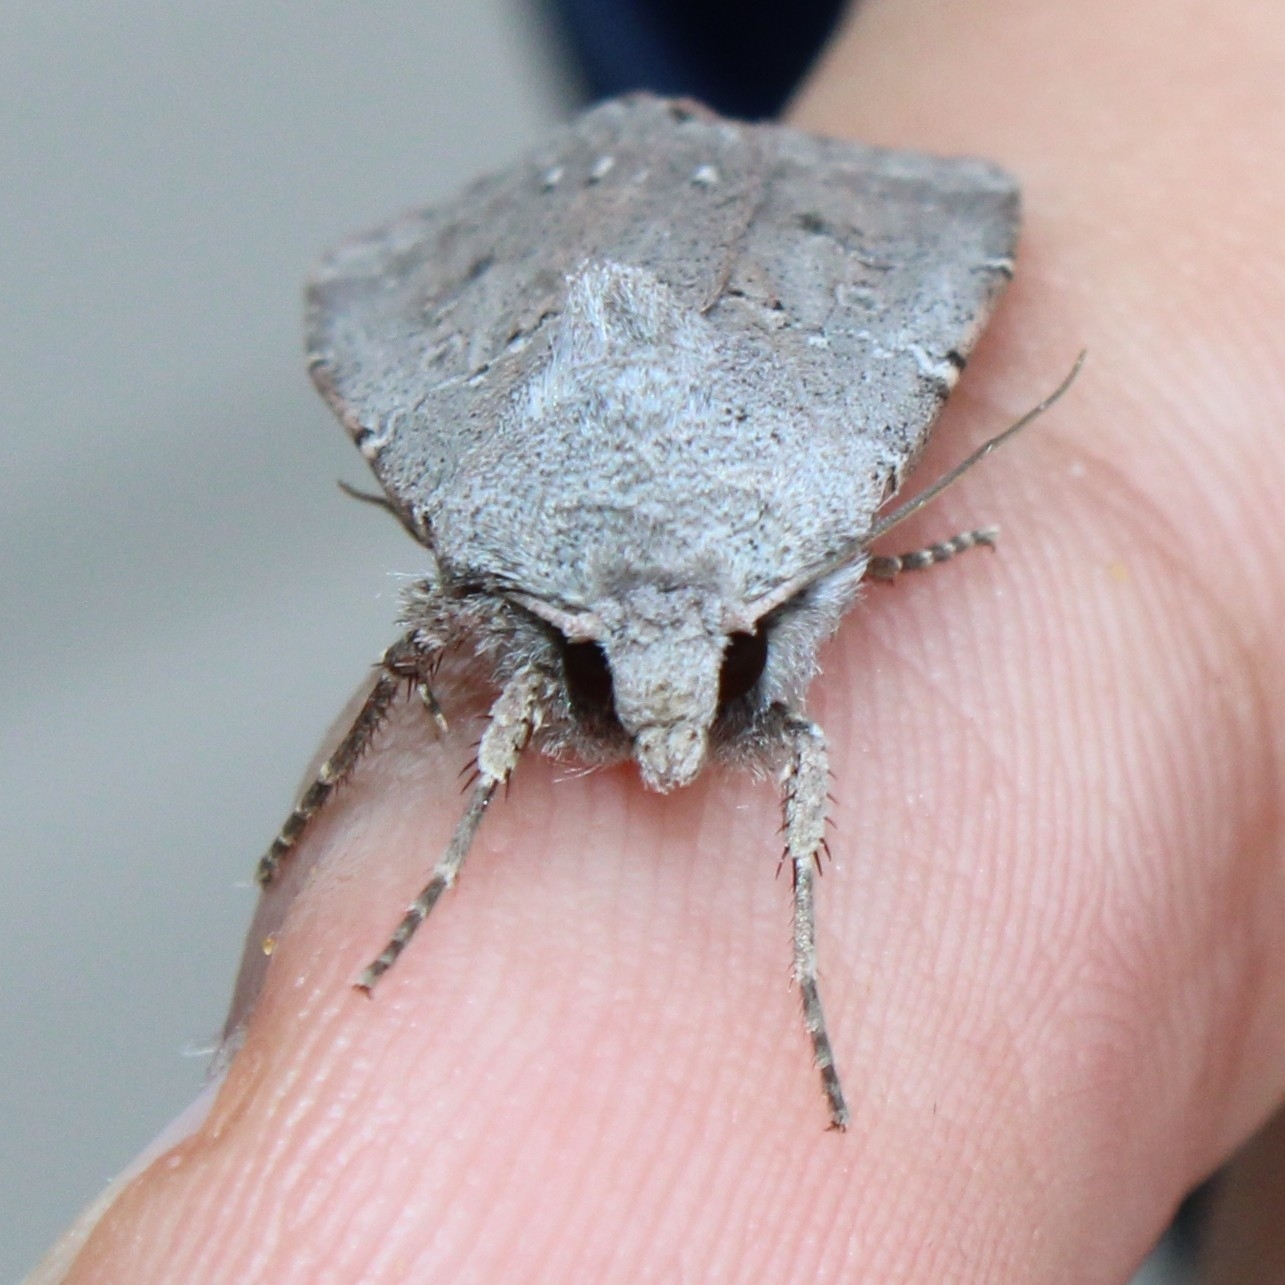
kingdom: Animalia
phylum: Arthropoda
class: Insecta
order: Lepidoptera
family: Noctuidae
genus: Agrotis
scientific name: Agrotis vetusta
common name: Old man dart
